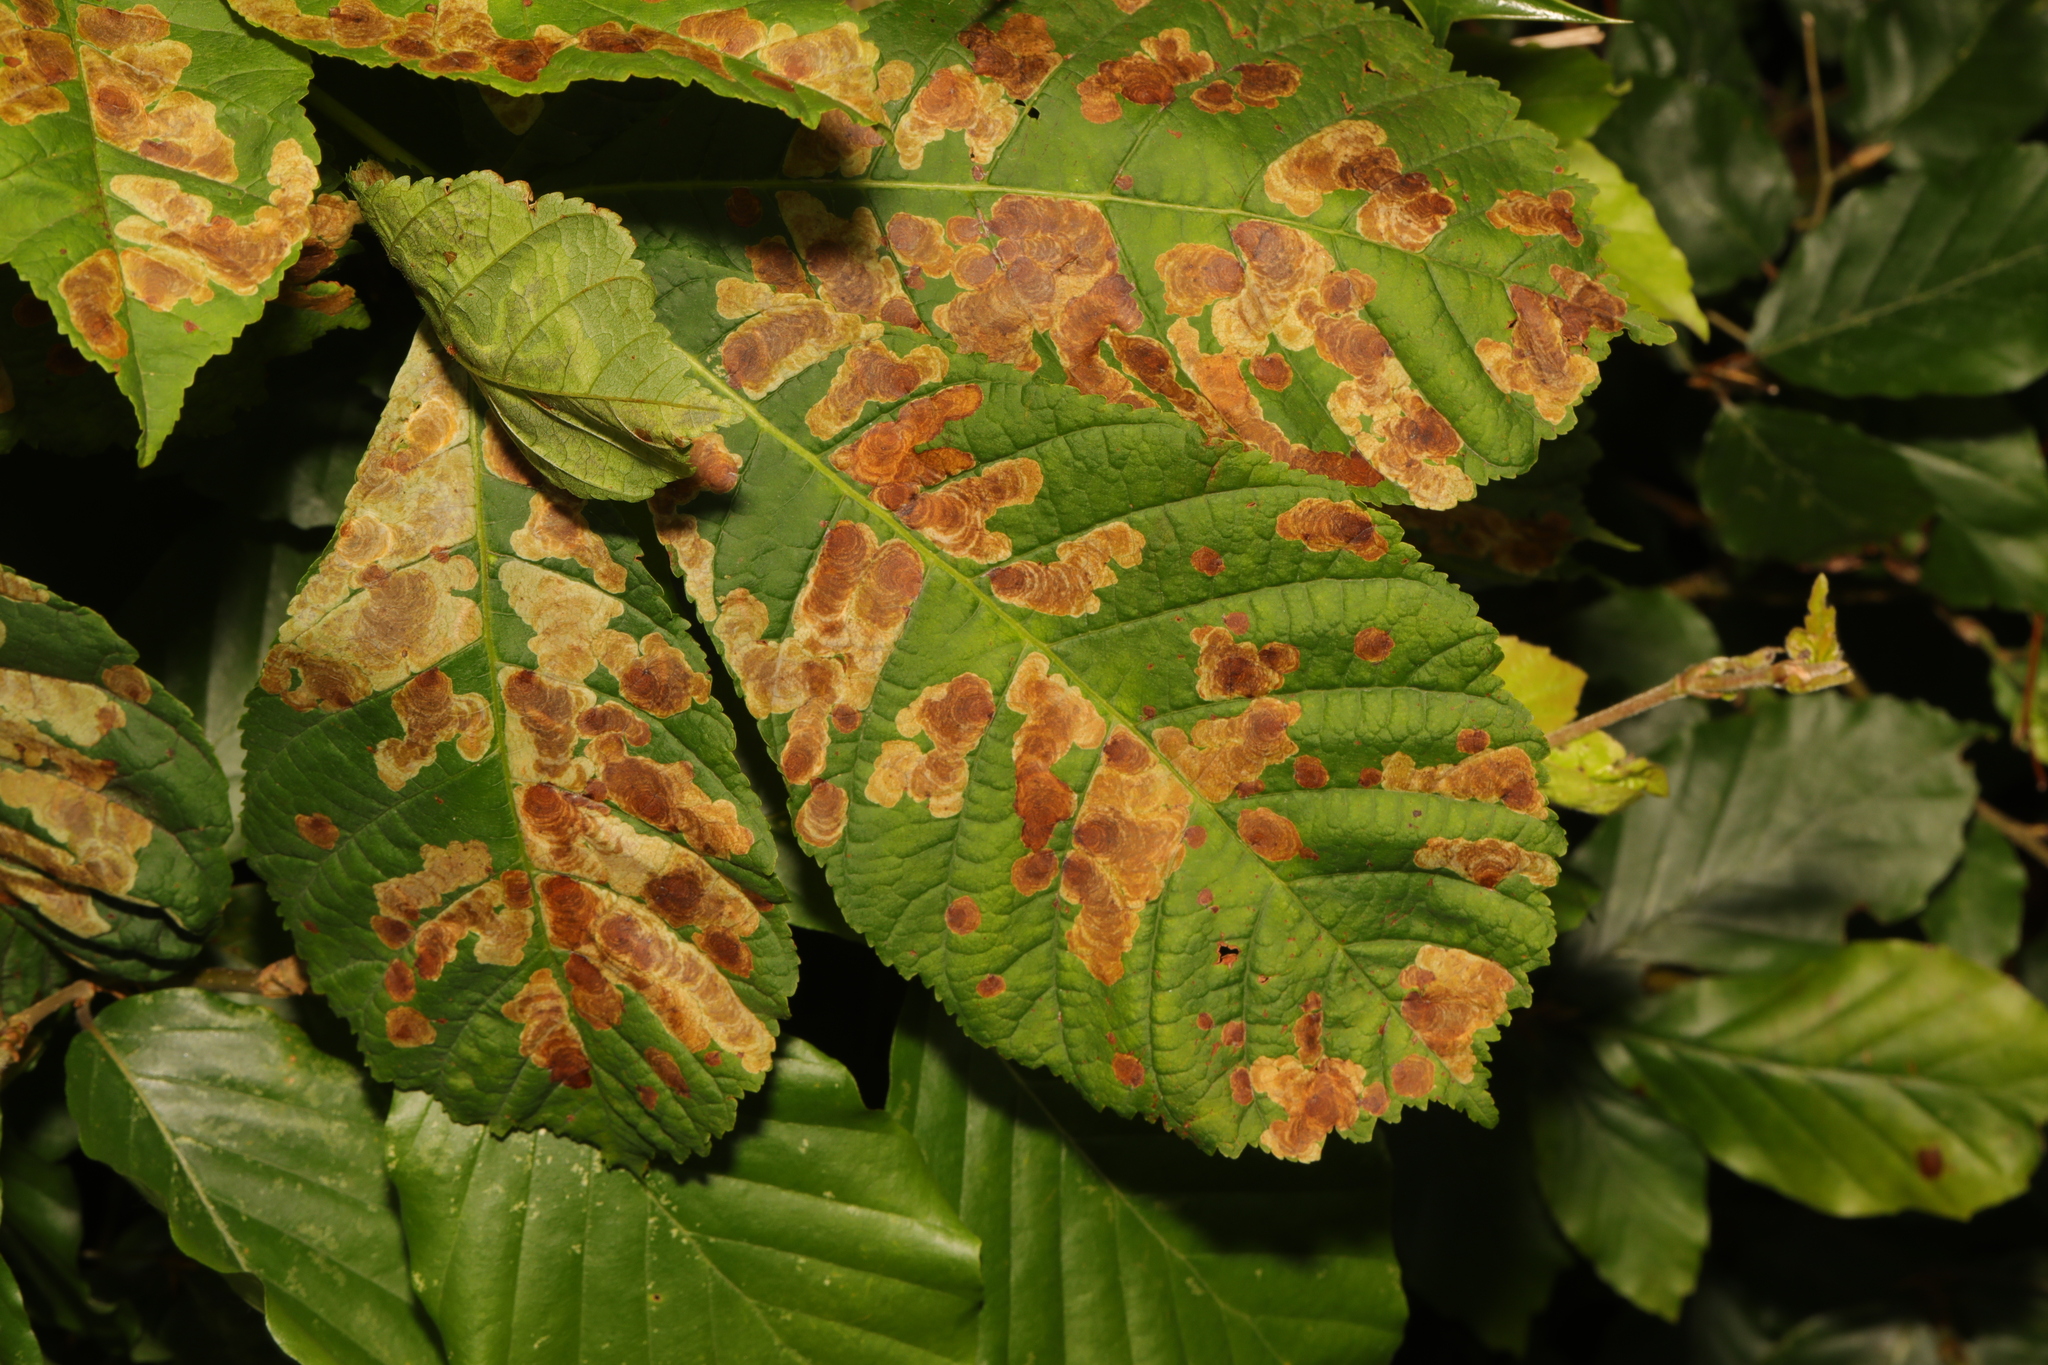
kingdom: Animalia
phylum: Arthropoda
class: Insecta
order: Lepidoptera
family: Gracillariidae
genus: Cameraria
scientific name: Cameraria ohridella
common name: Horse-chestnut leaf-miner
